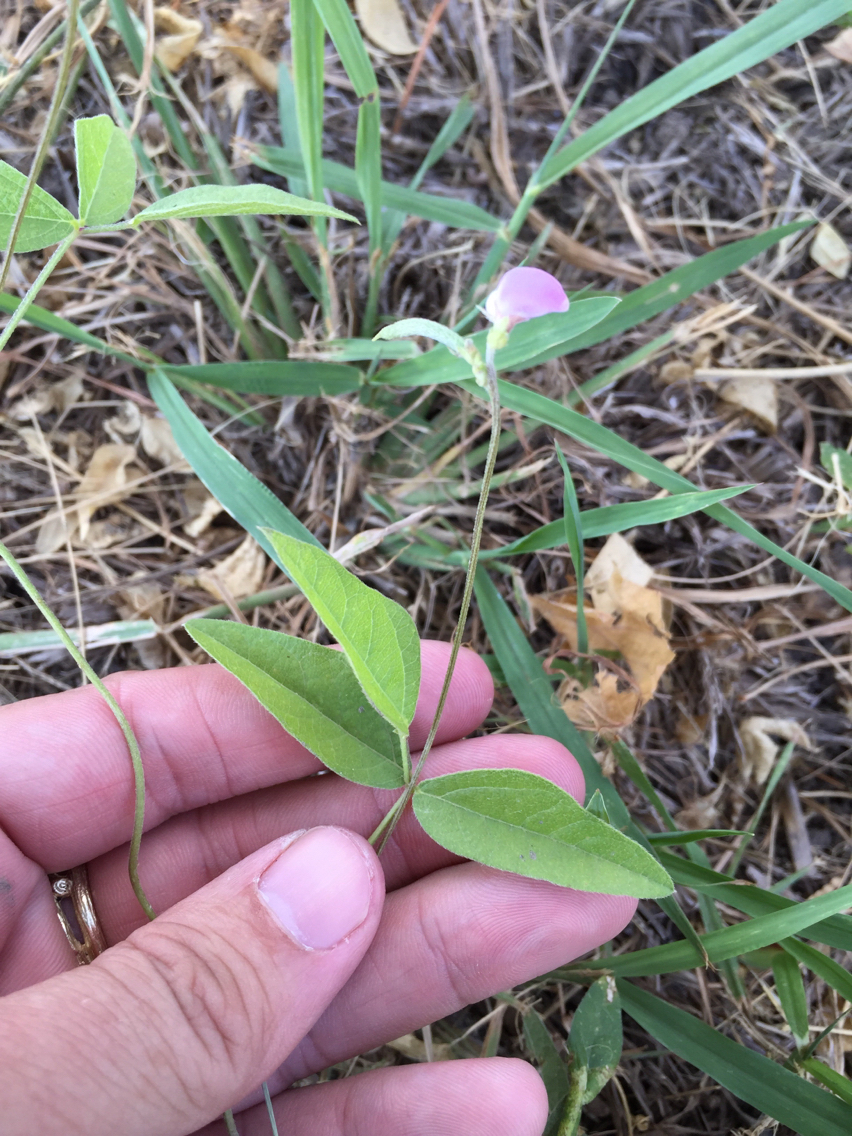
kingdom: Plantae
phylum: Tracheophyta
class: Magnoliopsida
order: Fabales
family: Fabaceae
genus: Strophostyles
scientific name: Strophostyles leiosperma
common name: Smooth-seed wild bean
